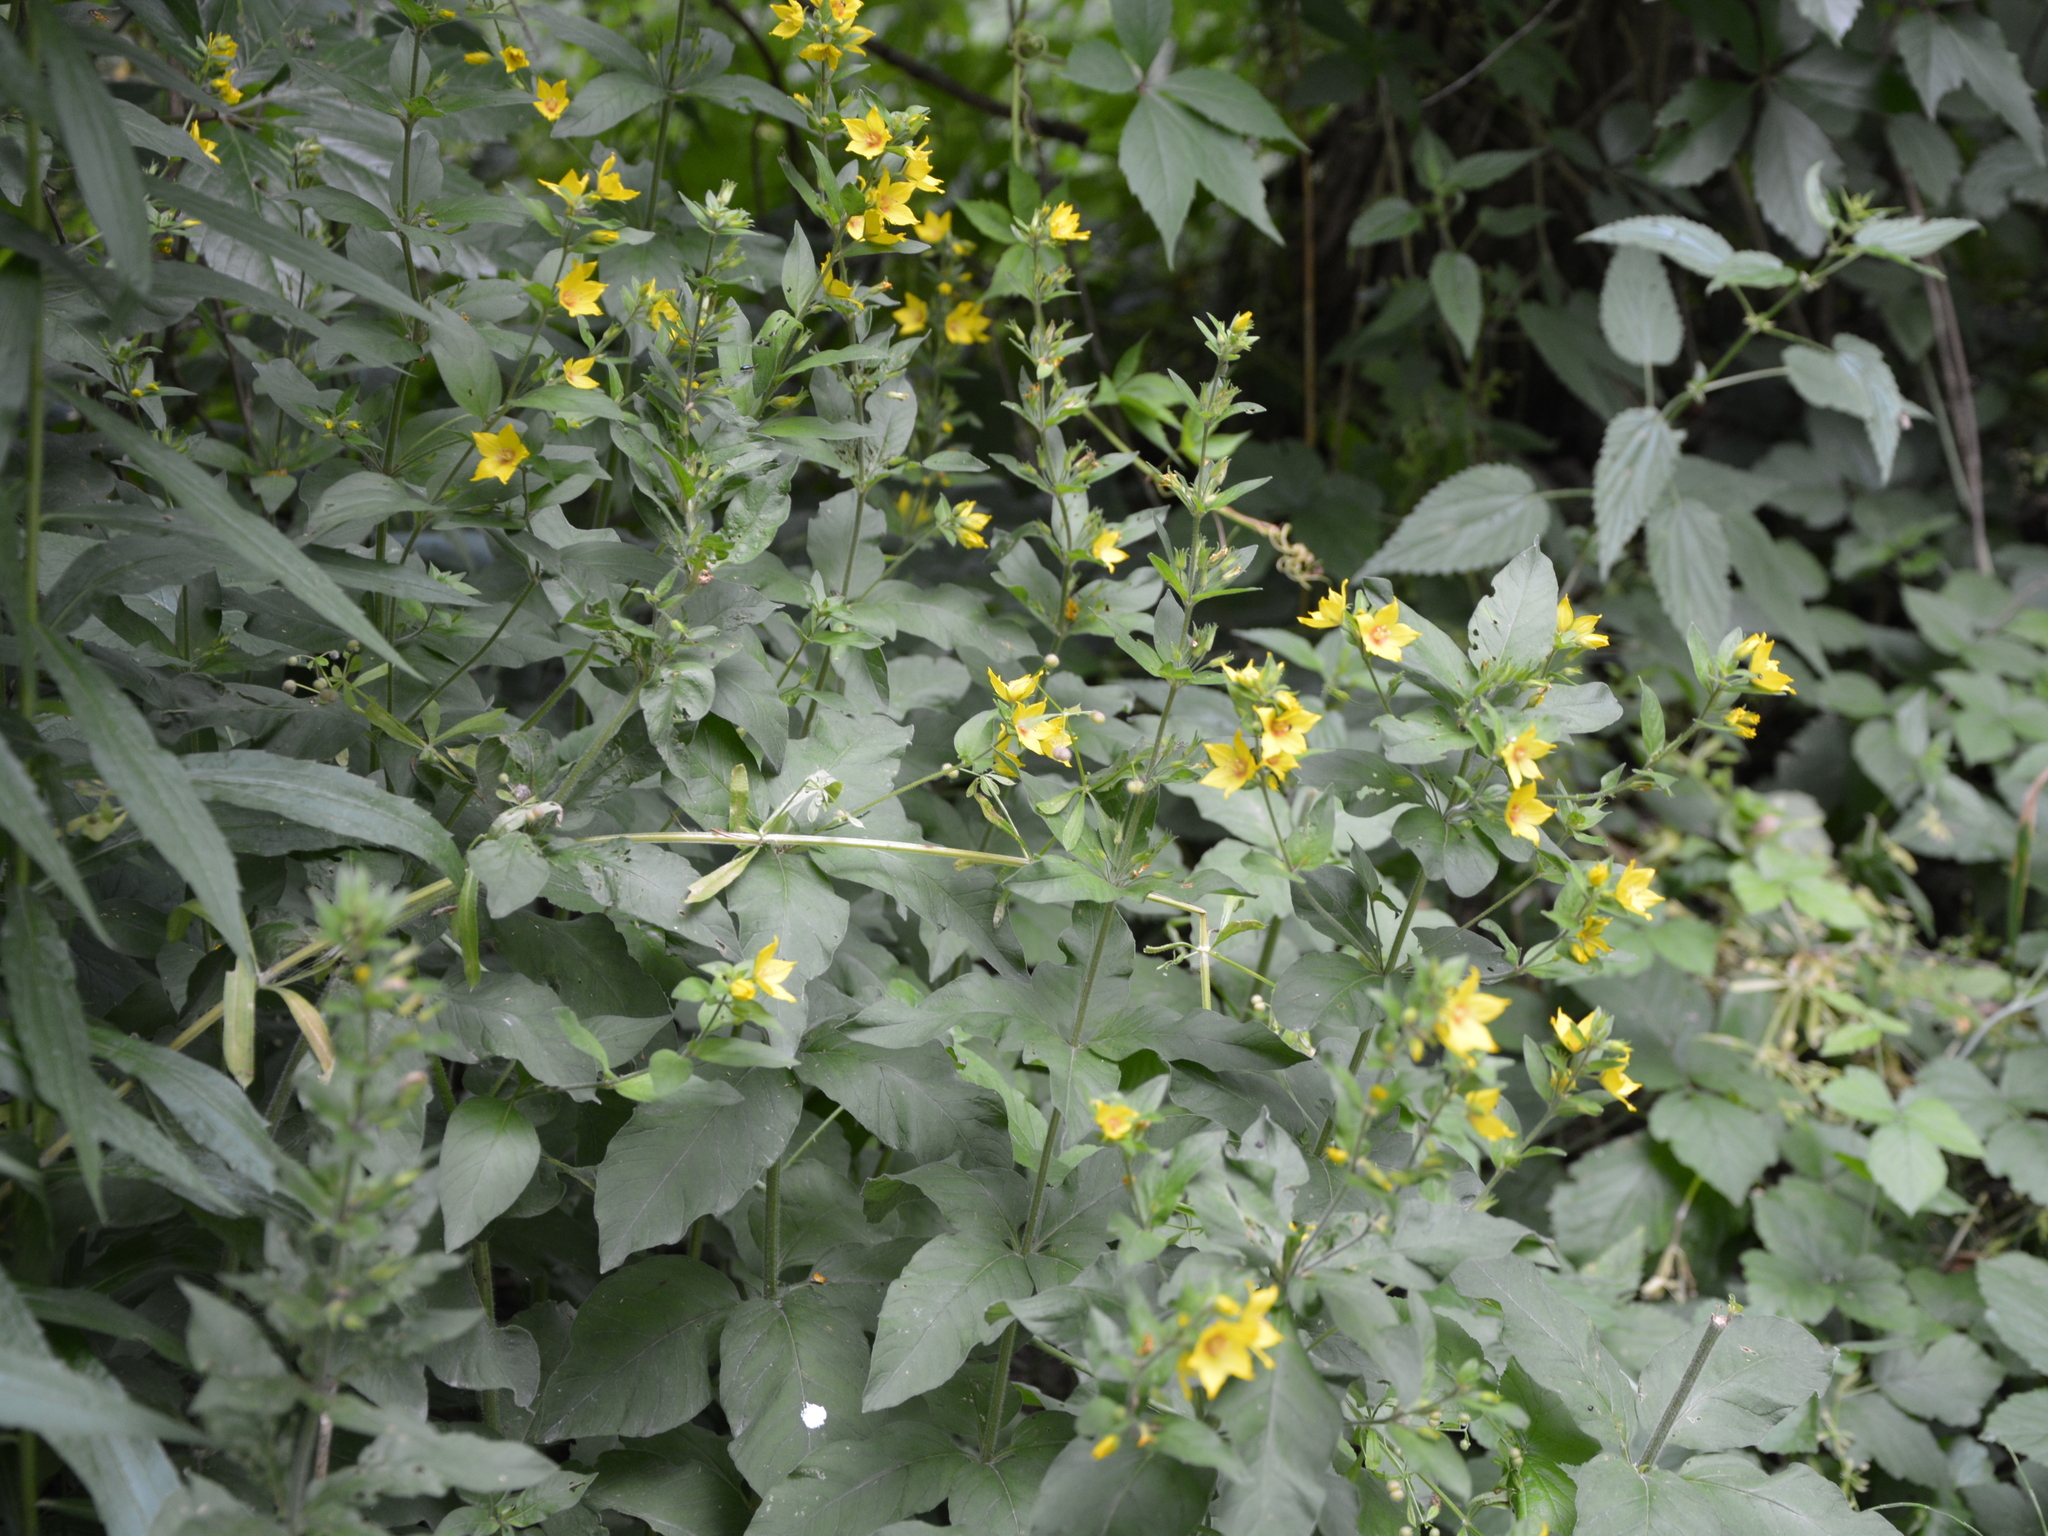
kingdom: Plantae
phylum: Tracheophyta
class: Magnoliopsida
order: Ericales
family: Primulaceae
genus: Lysimachia
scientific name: Lysimachia punctata
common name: Dotted loosestrife
